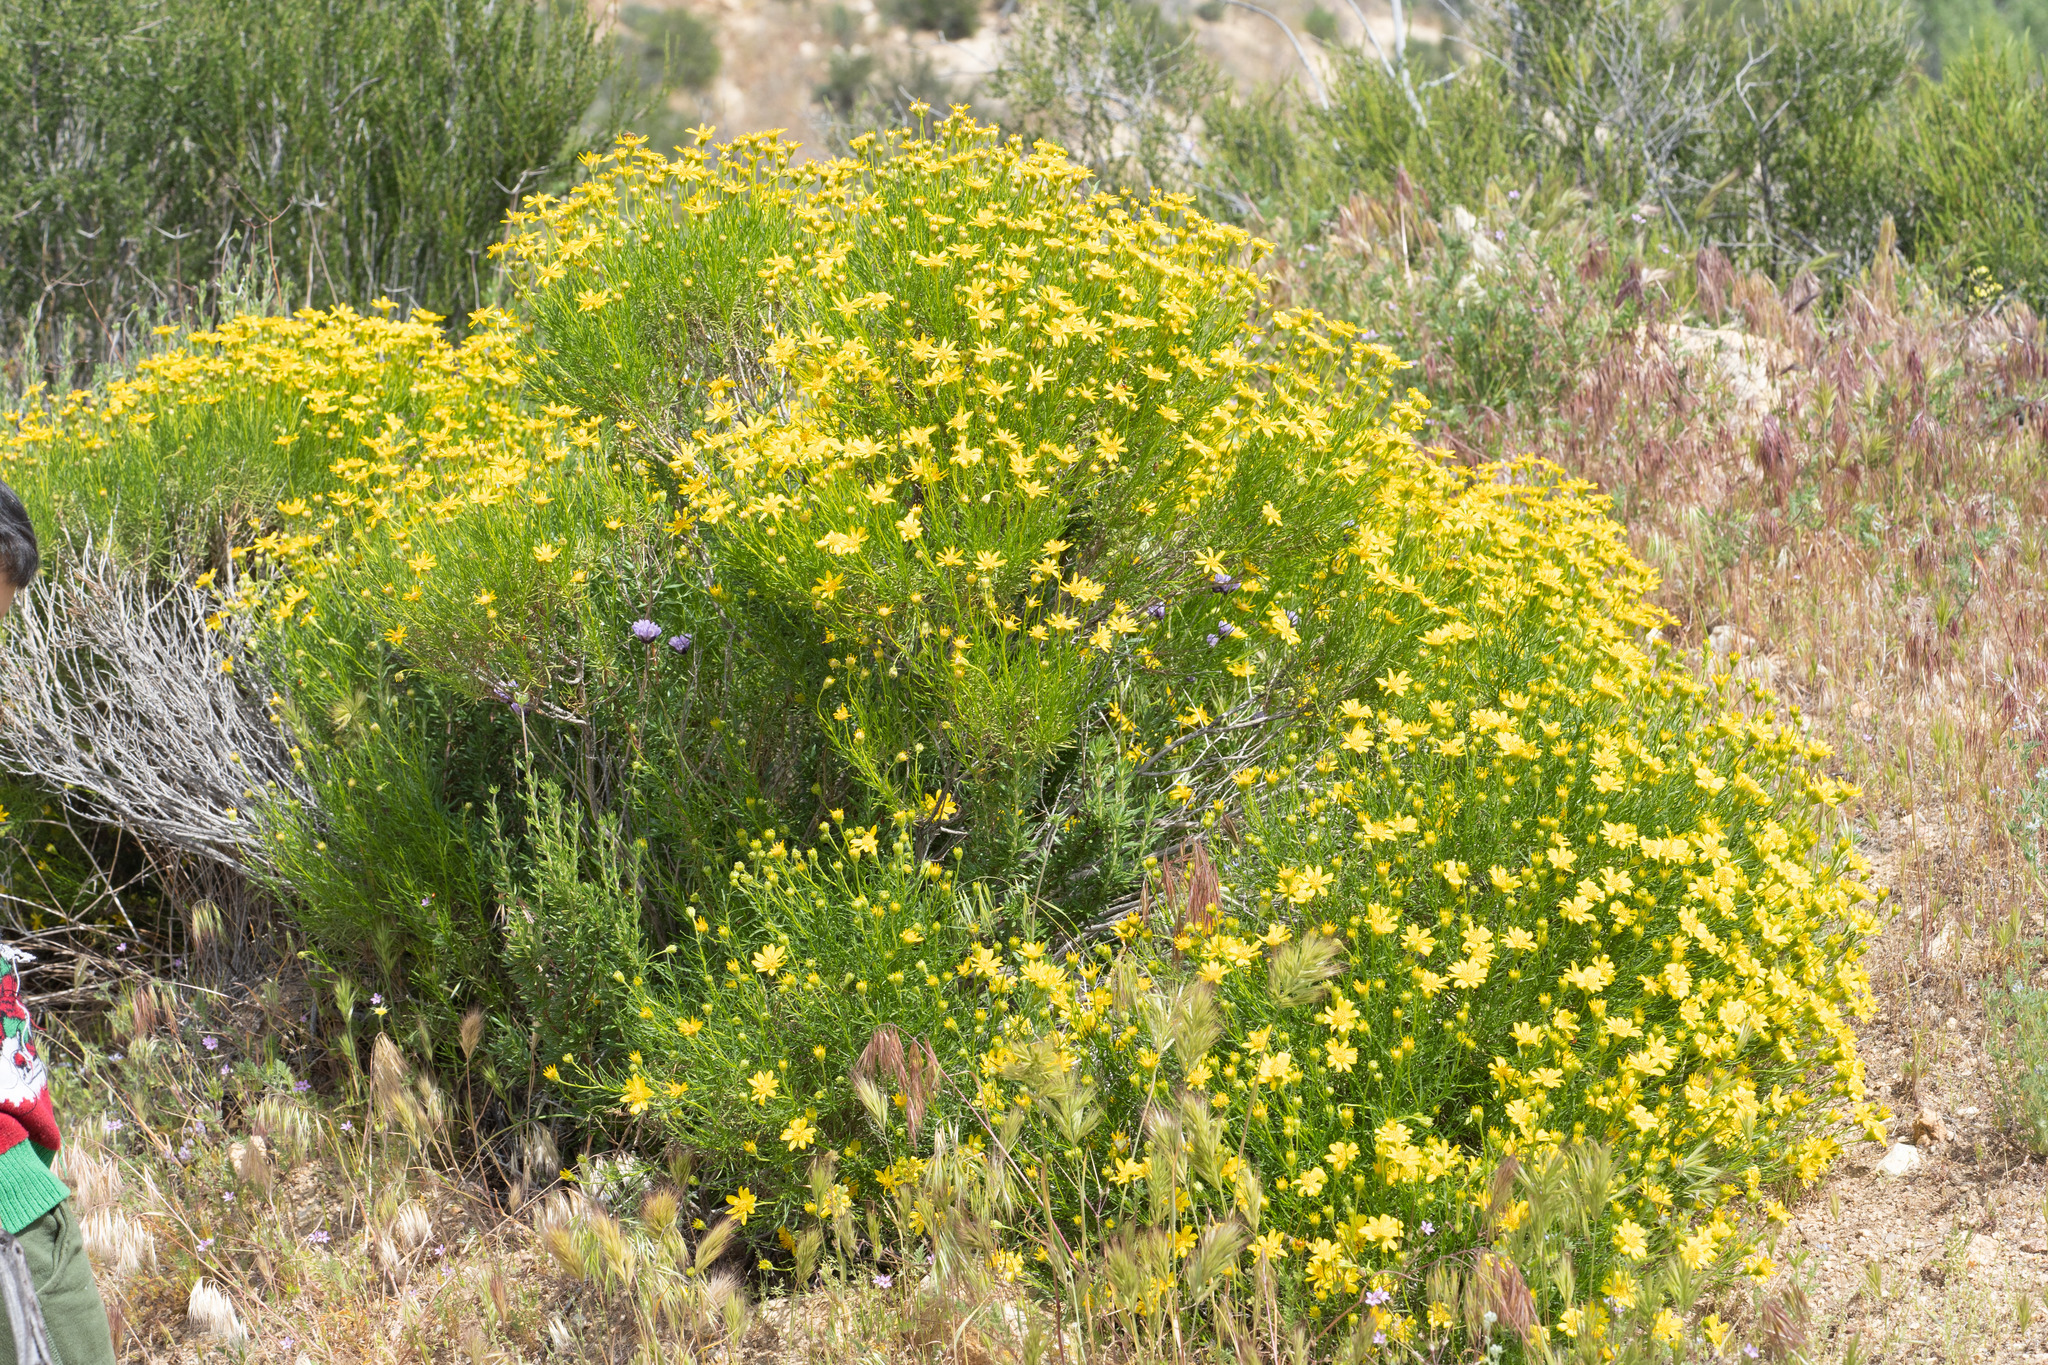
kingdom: Plantae
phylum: Tracheophyta
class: Magnoliopsida
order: Asterales
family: Asteraceae
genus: Ericameria
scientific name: Ericameria linearifolia
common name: Interior goldenbush
